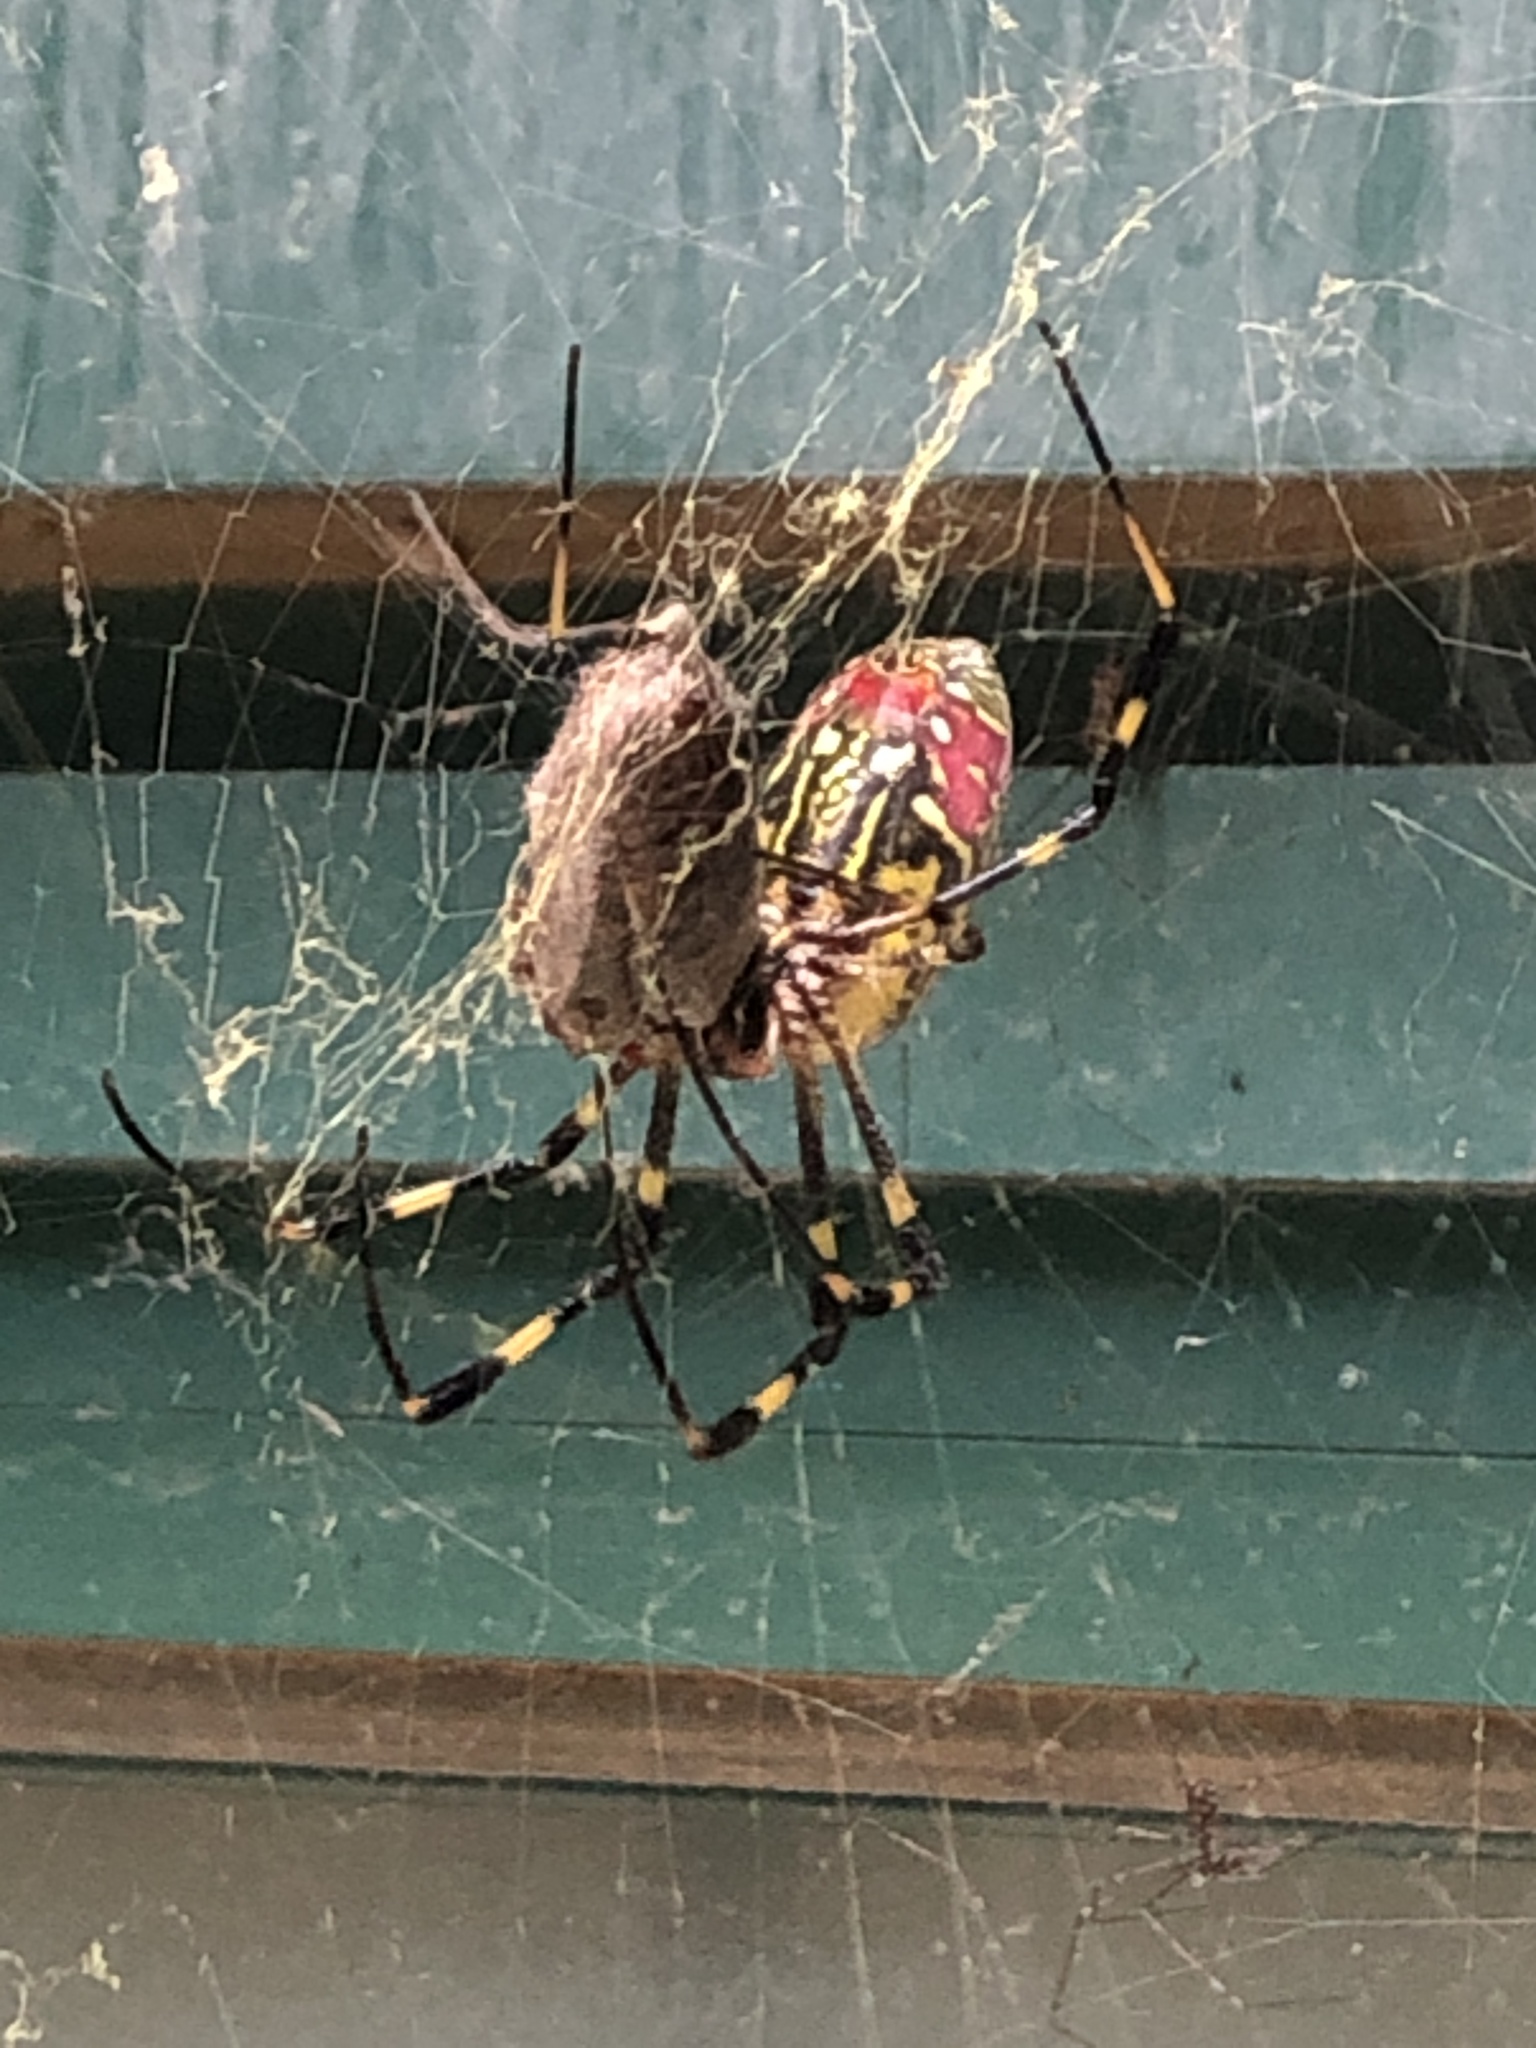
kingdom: Animalia
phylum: Arthropoda
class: Arachnida
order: Araneae
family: Araneidae
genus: Trichonephila
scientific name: Trichonephila clavata
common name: Jorō spider
